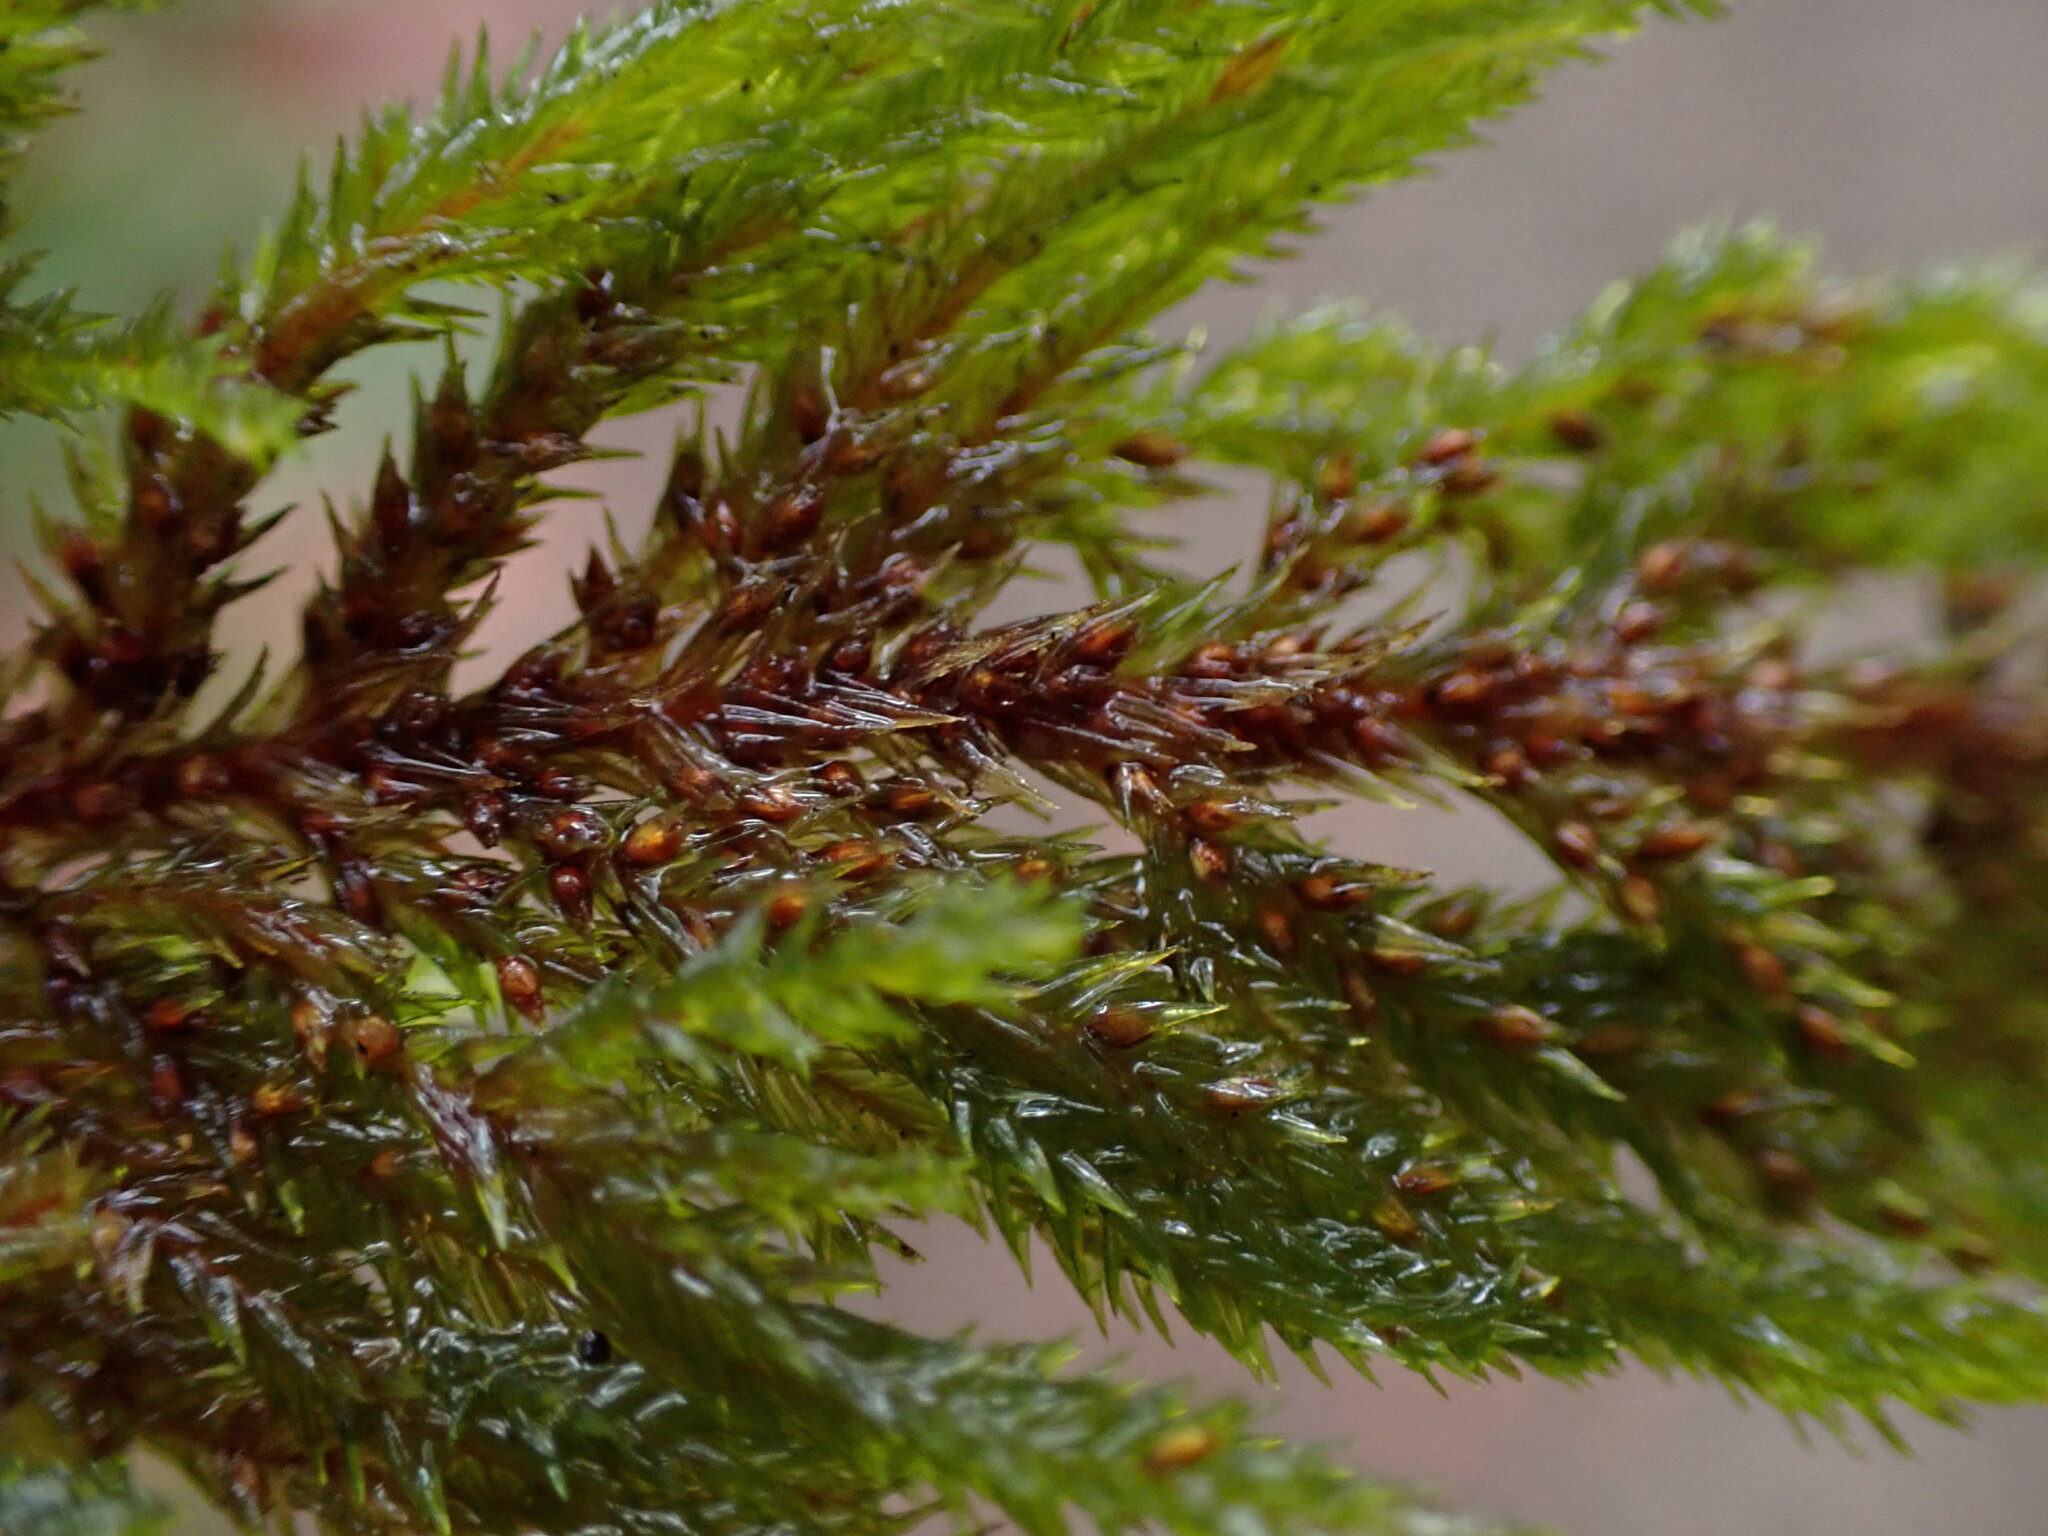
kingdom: Plantae
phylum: Bryophyta
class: Bryopsida
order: Hypnales
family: Cryphaeaceae
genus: Dendroalsia
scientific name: Dendroalsia abietina
